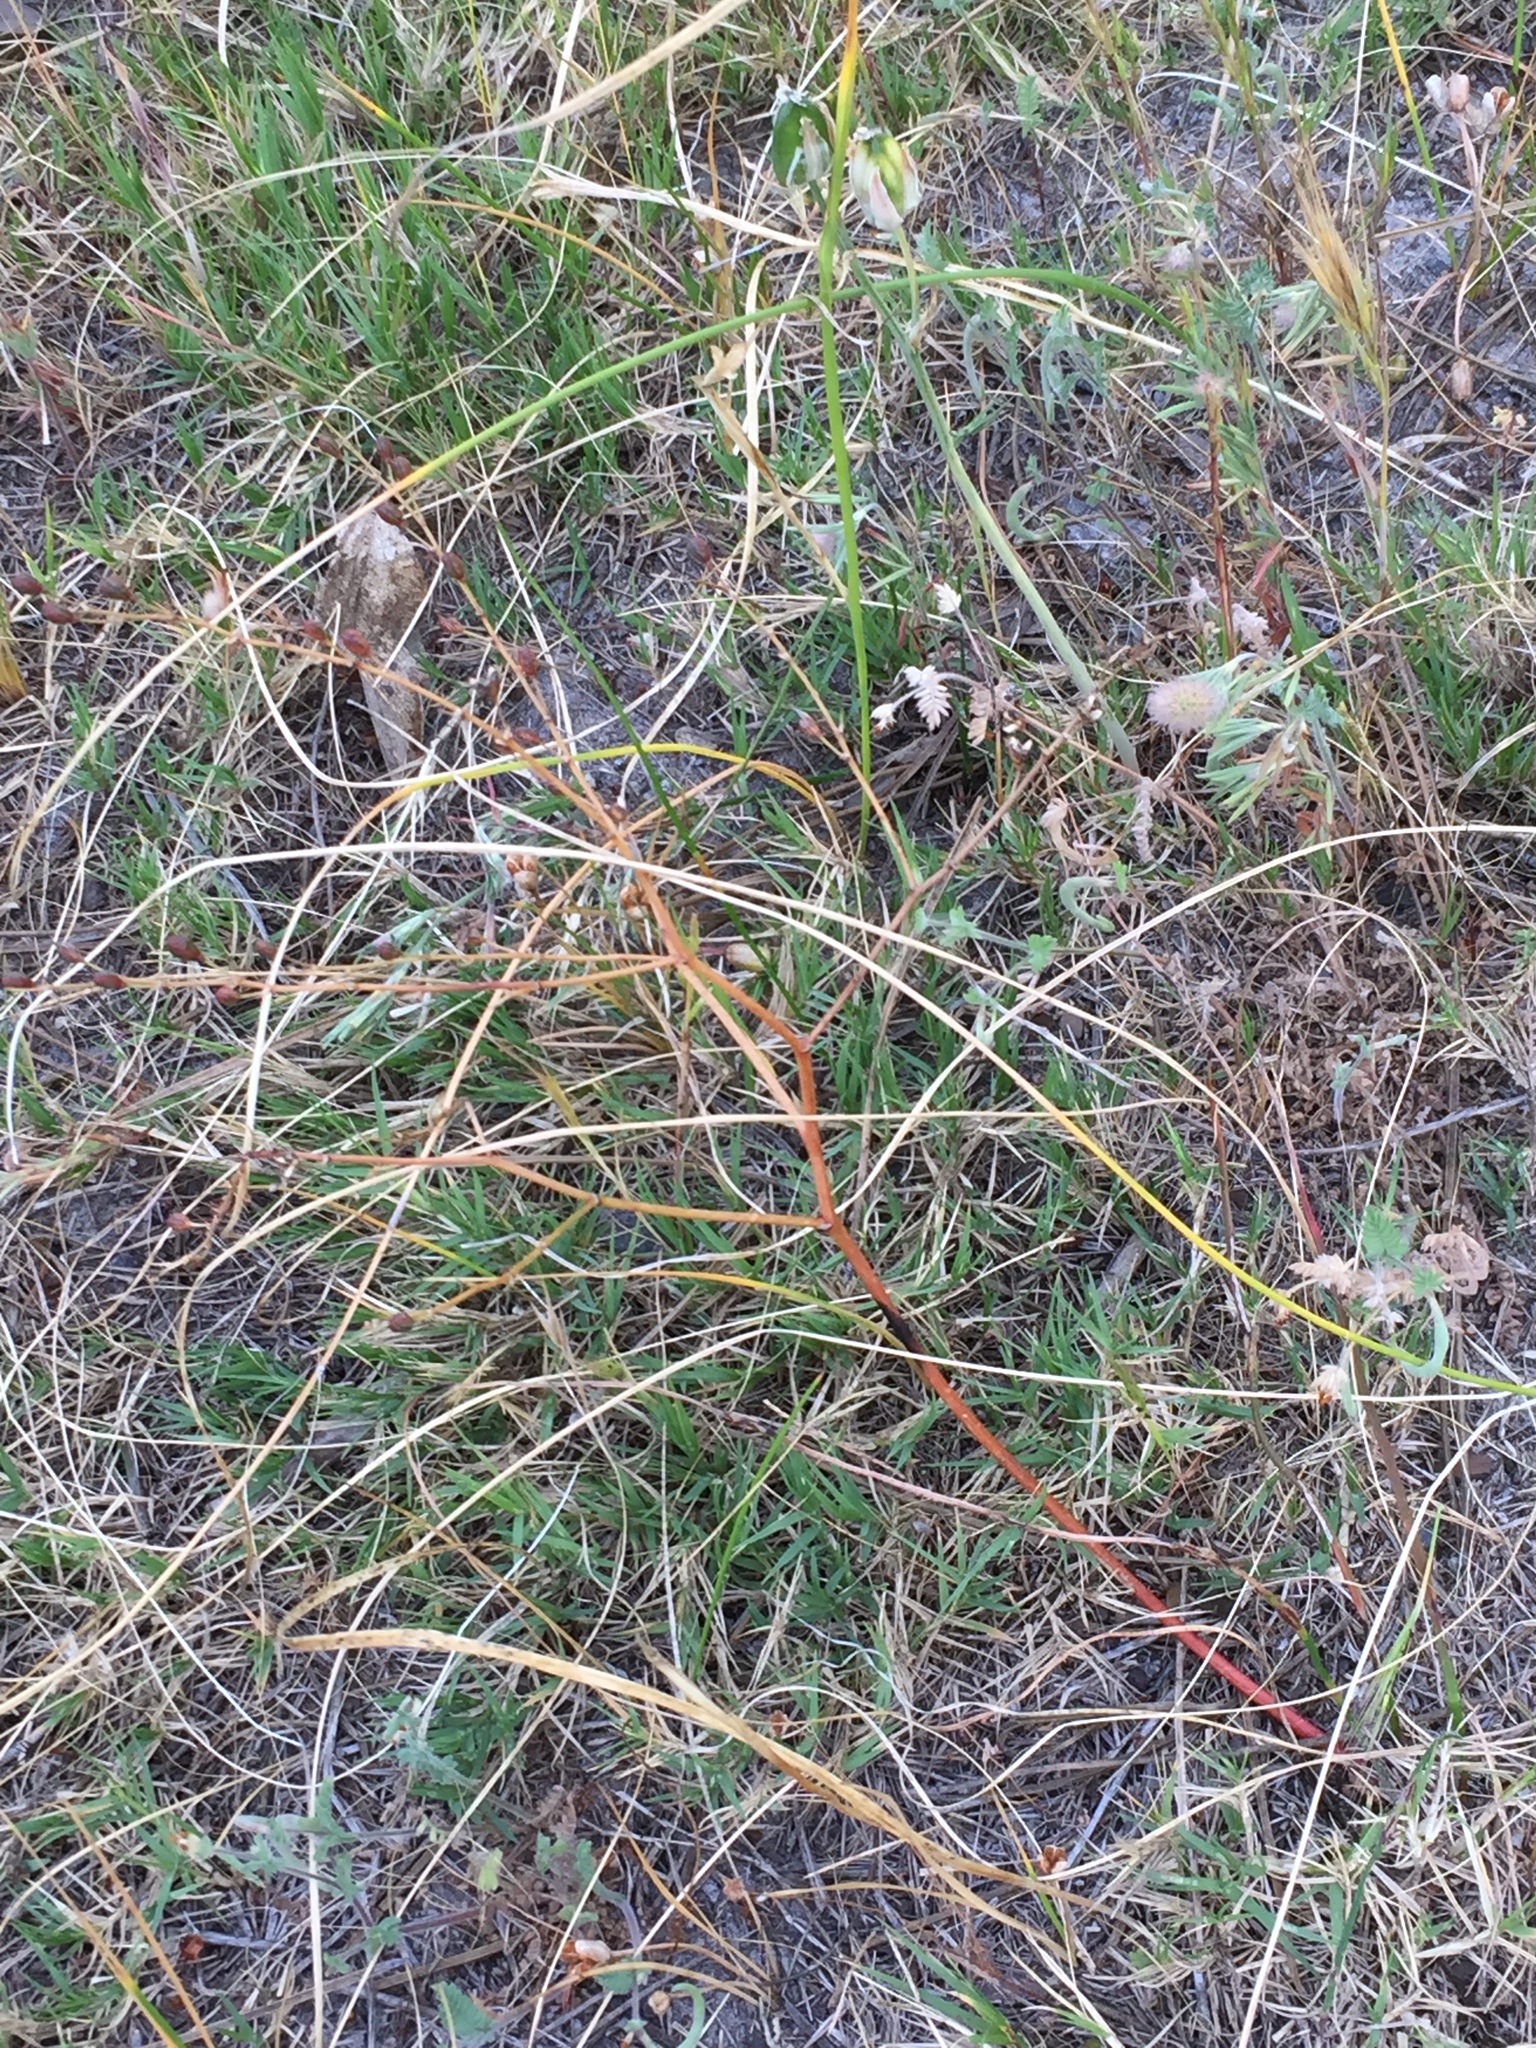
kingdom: Plantae
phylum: Tracheophyta
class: Liliopsida
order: Asparagales
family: Asphodelaceae
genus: Trachyandra
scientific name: Trachyandra revoluta
